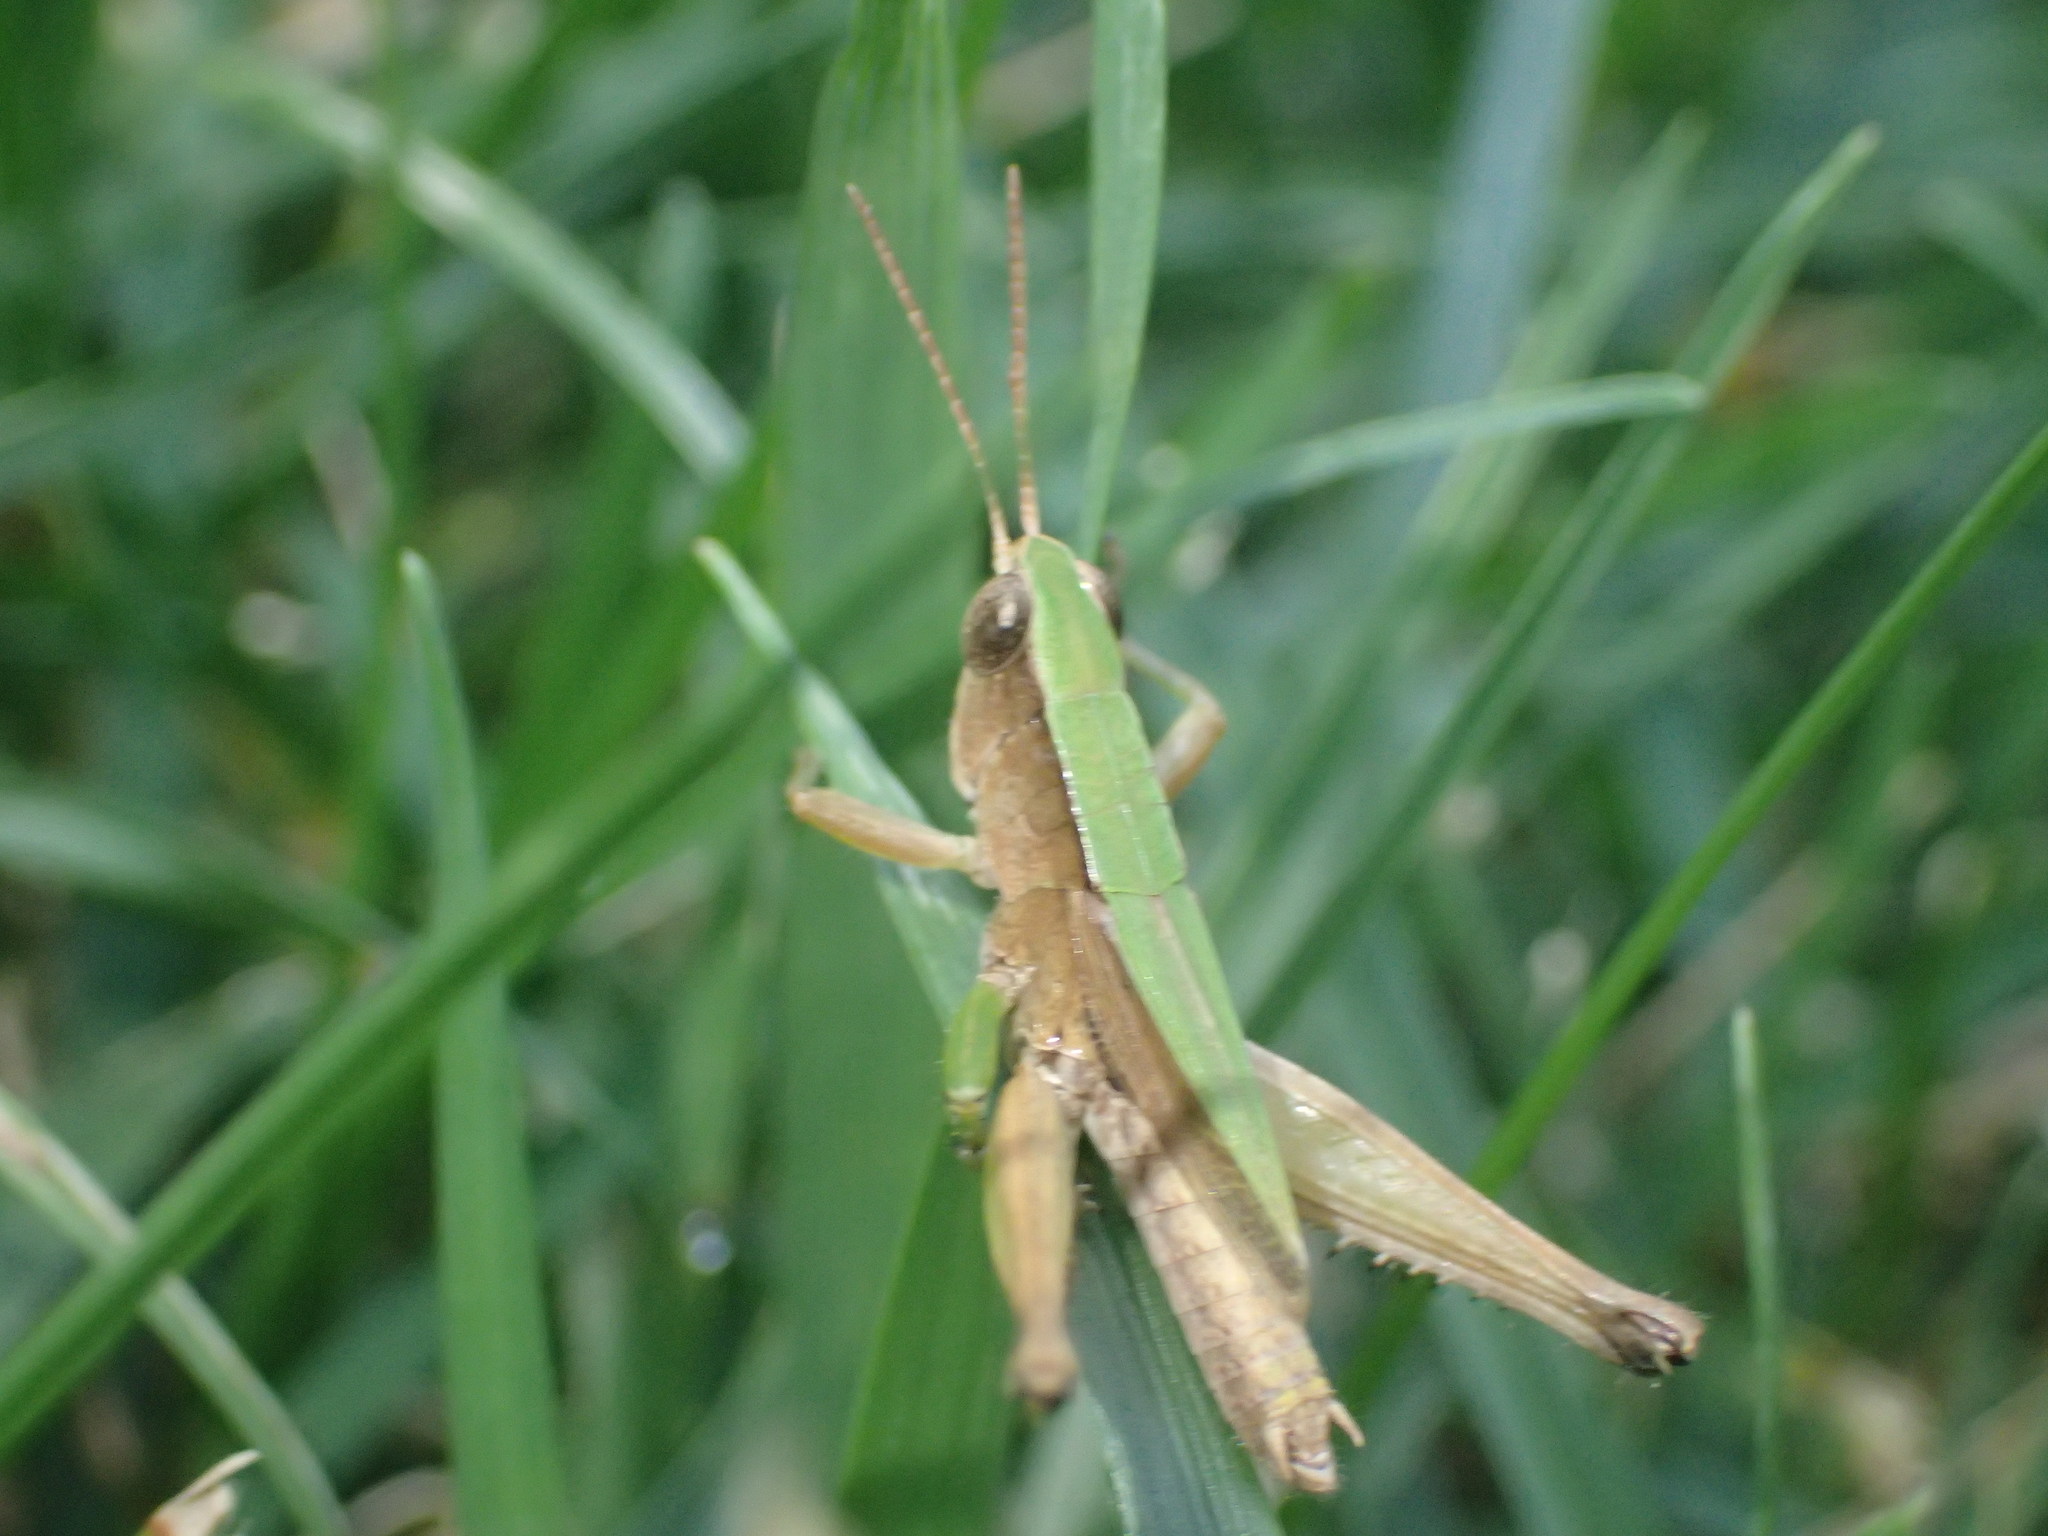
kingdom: Animalia
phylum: Arthropoda
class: Insecta
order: Orthoptera
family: Acrididae
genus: Dichromorpha
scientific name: Dichromorpha viridis
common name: Short-winged green grasshopper
